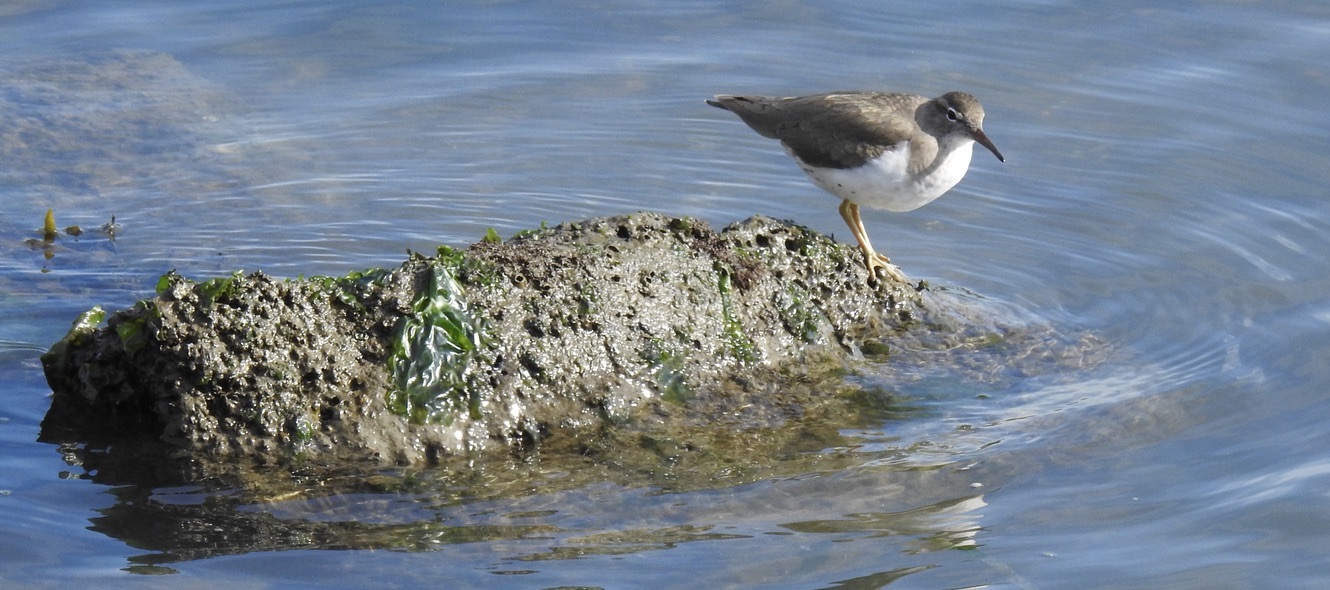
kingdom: Animalia
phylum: Chordata
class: Aves
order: Charadriiformes
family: Scolopacidae
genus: Actitis
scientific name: Actitis macularius
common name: Spotted sandpiper
